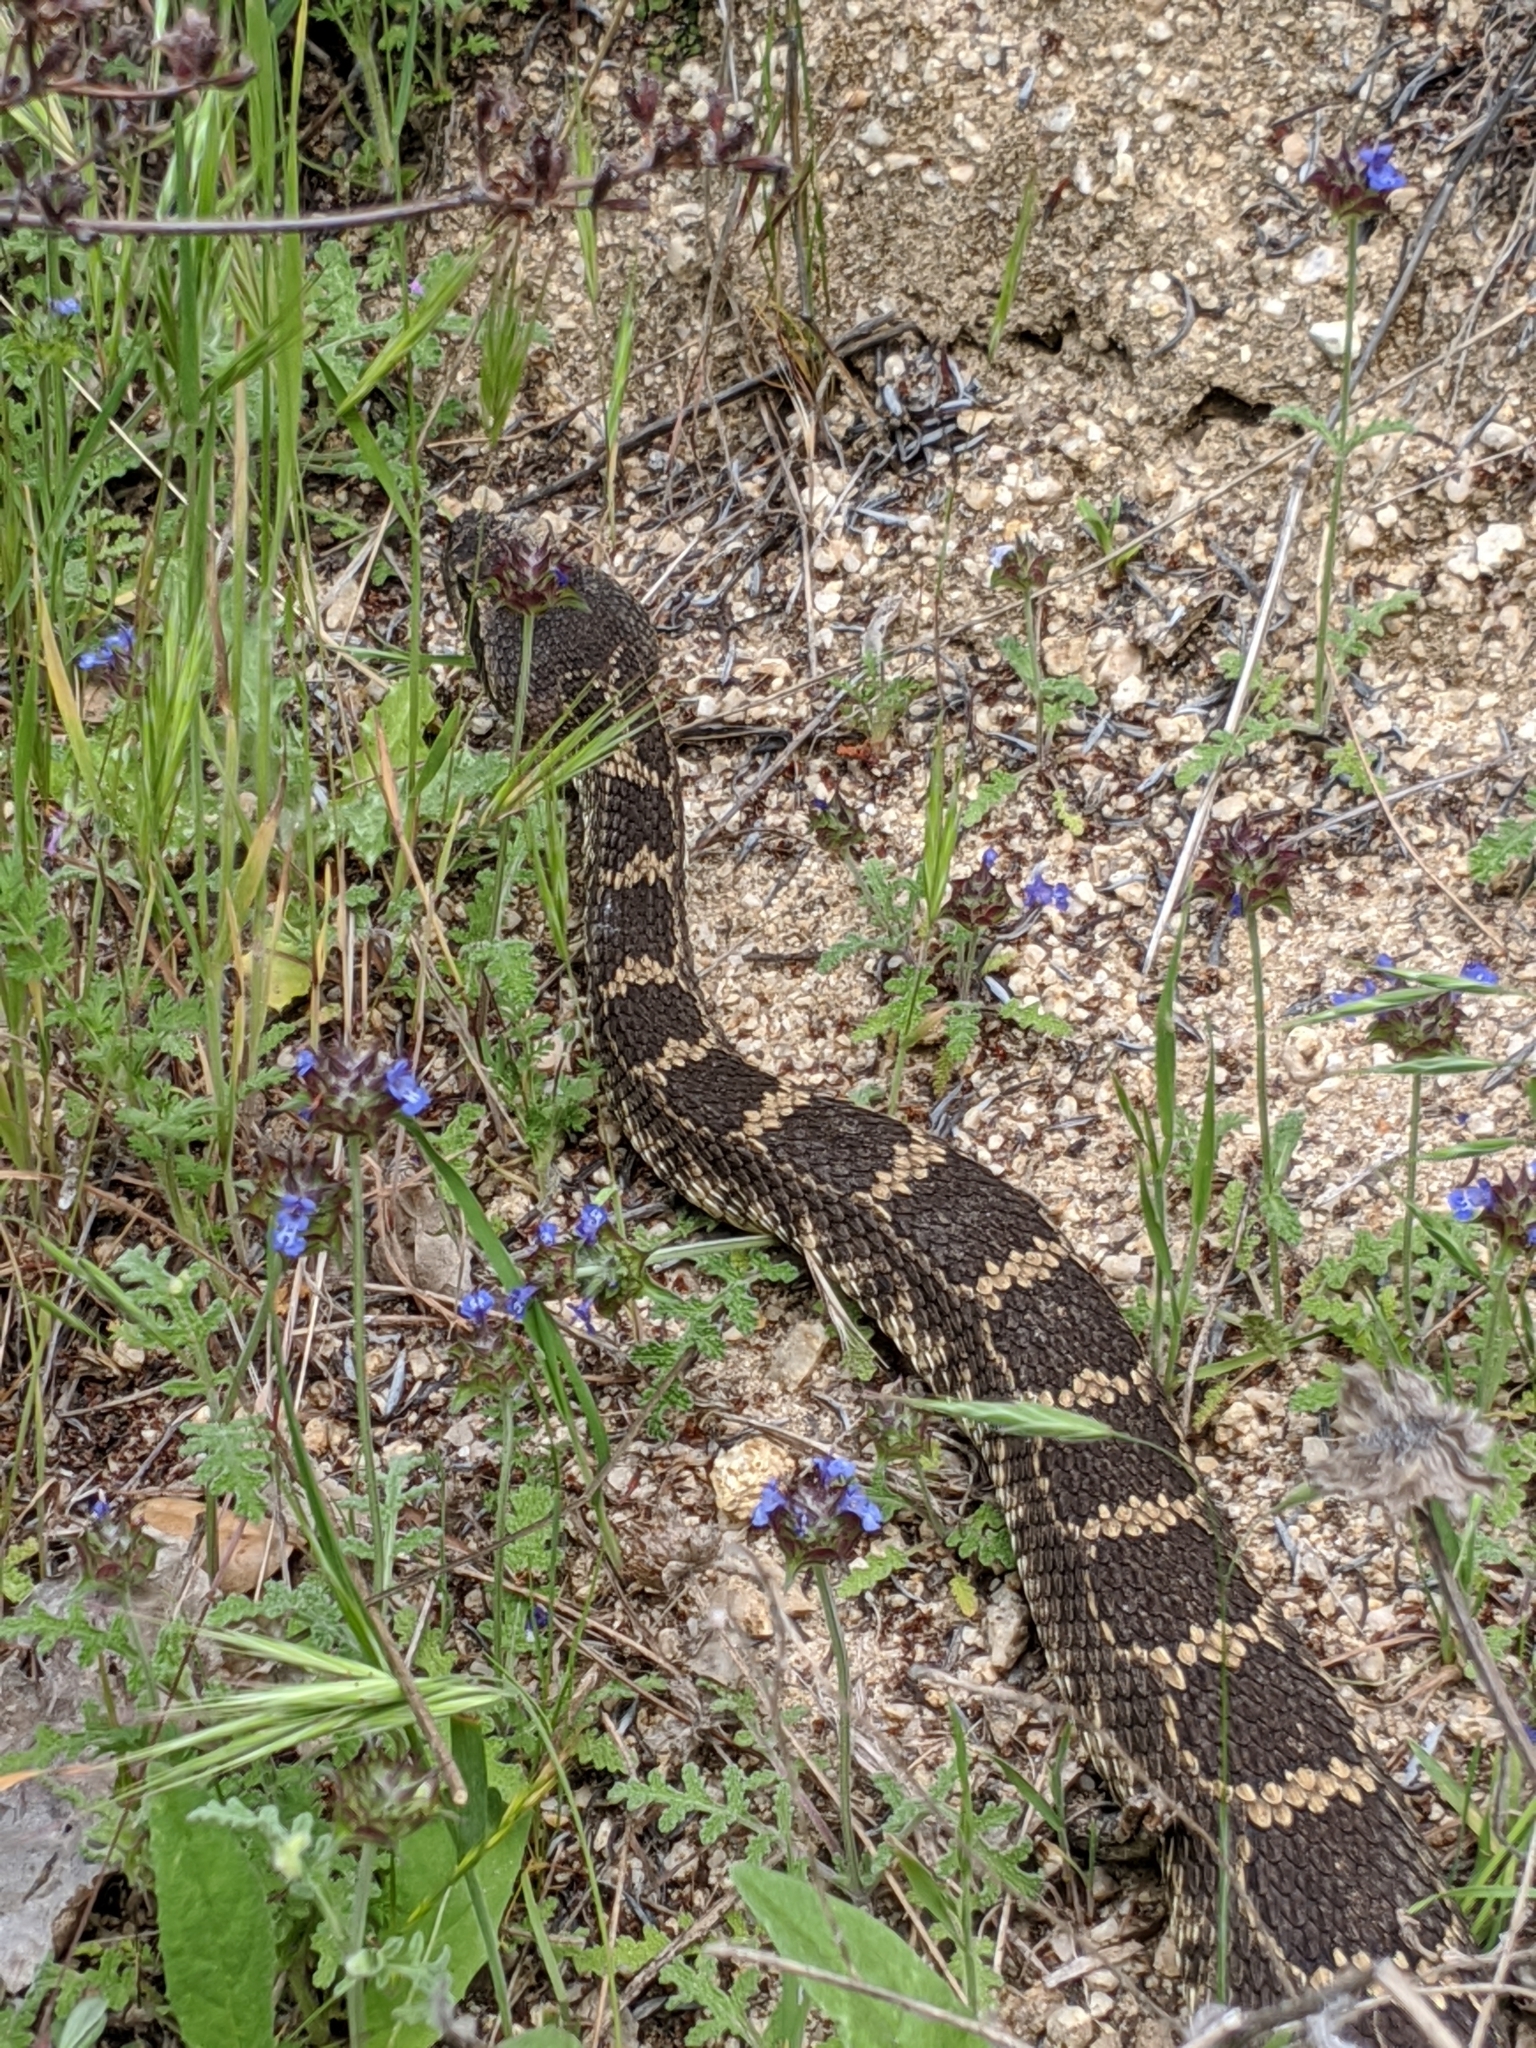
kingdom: Animalia
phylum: Chordata
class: Squamata
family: Viperidae
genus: Crotalus
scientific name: Crotalus oreganus
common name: Abyssus
